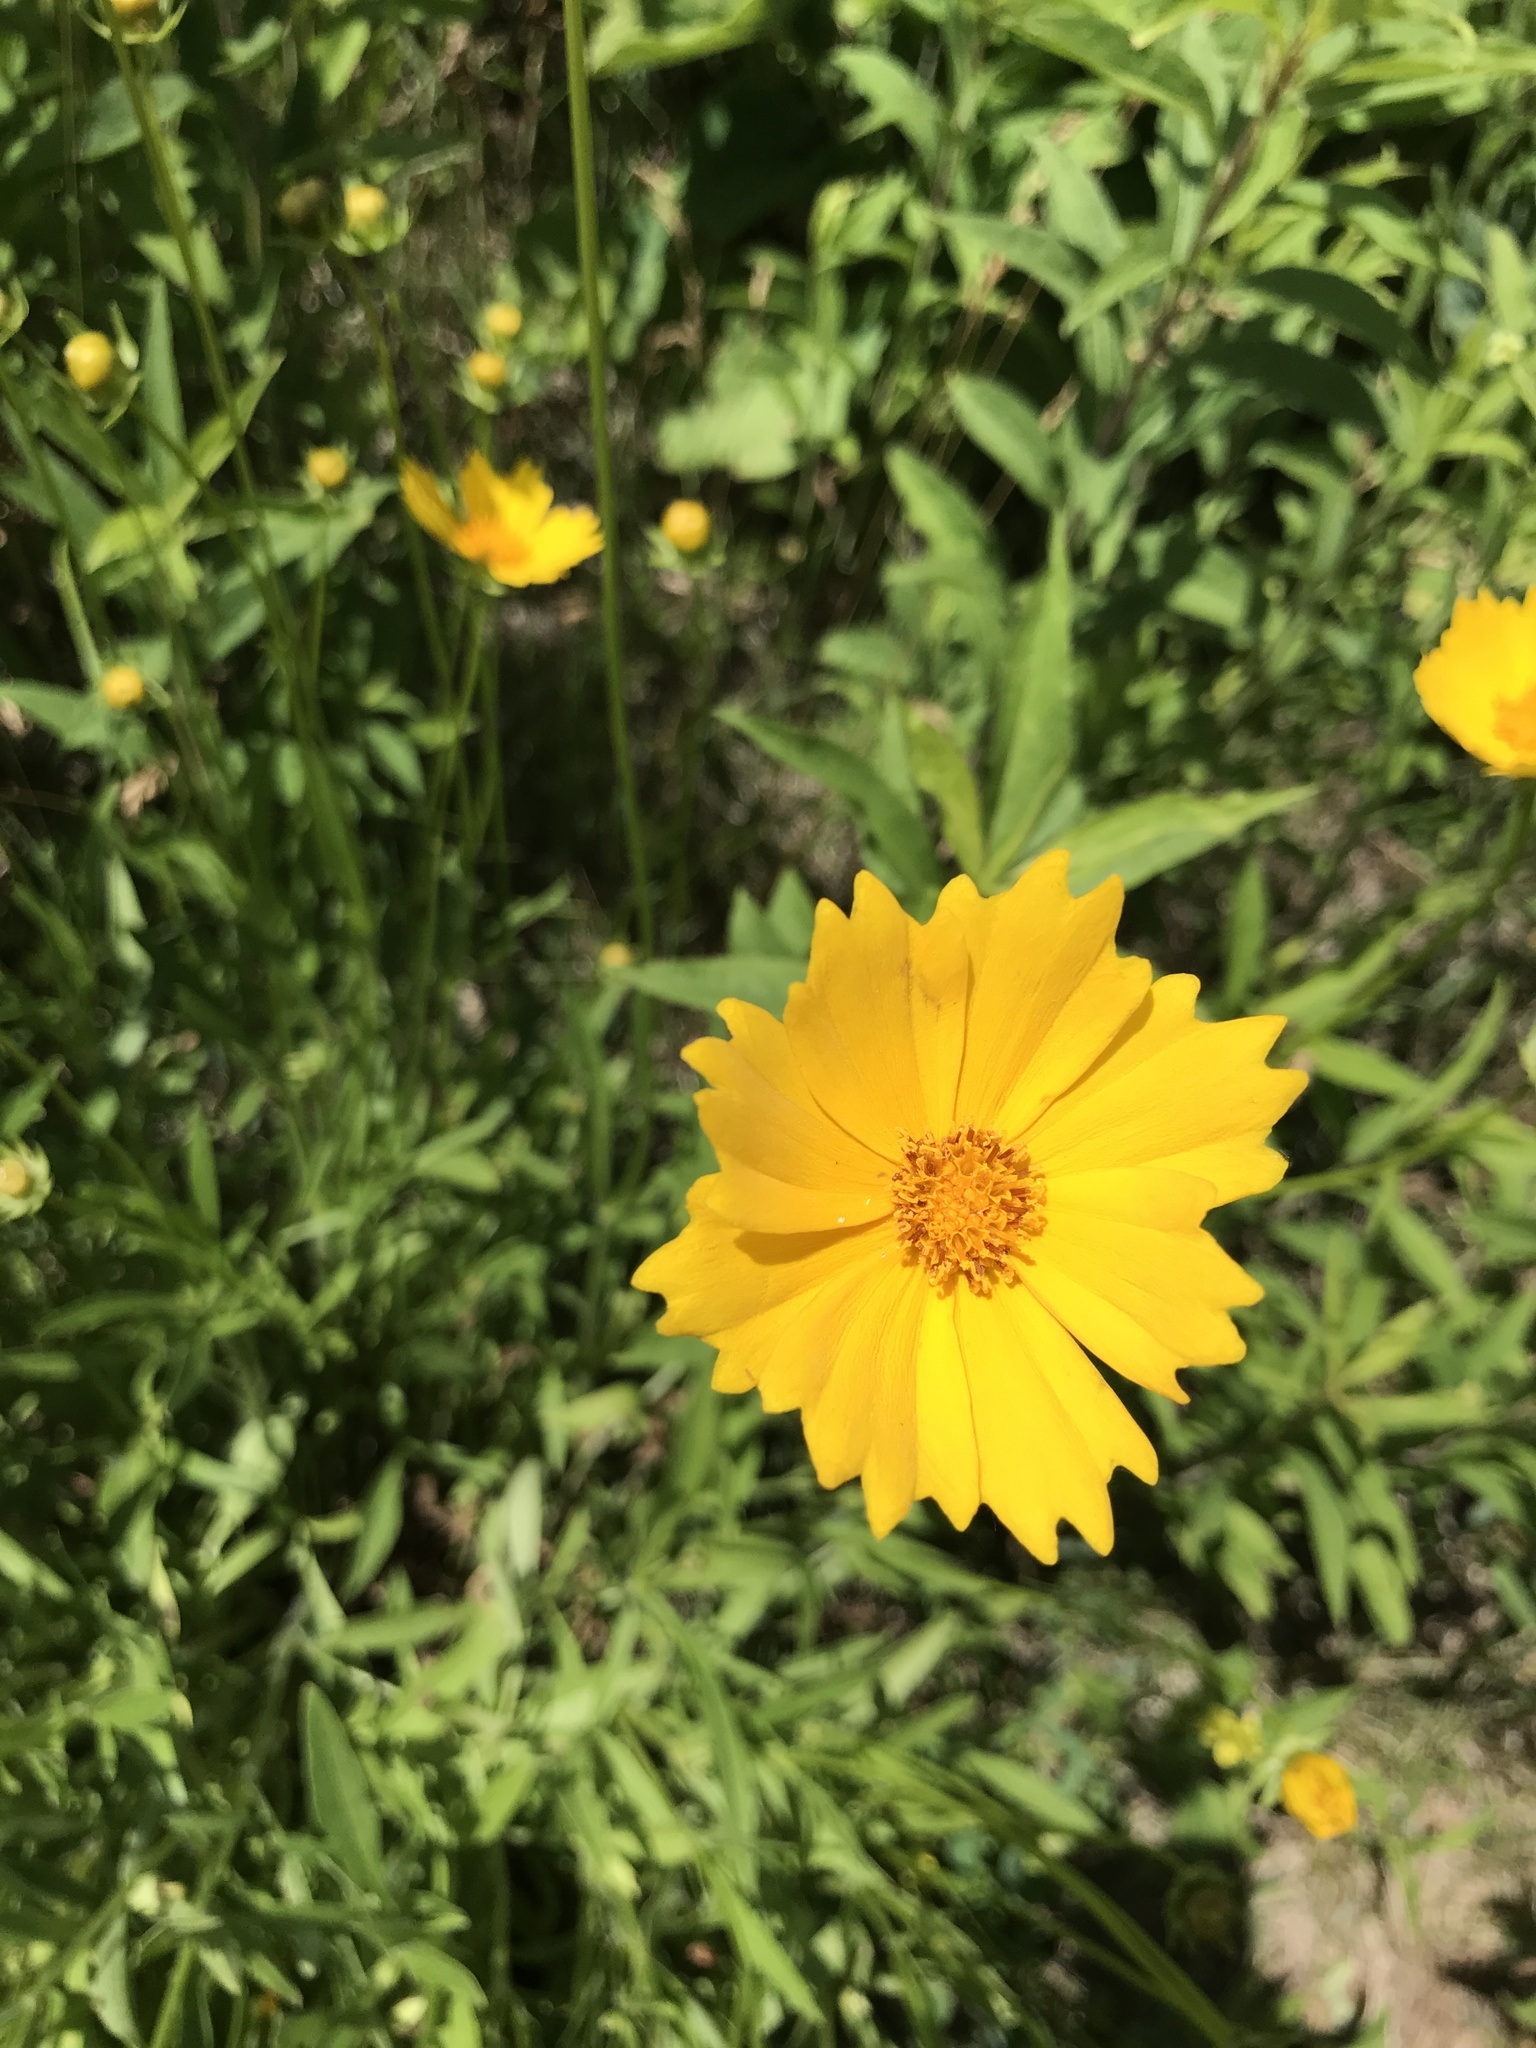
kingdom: Plantae
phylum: Tracheophyta
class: Magnoliopsida
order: Asterales
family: Asteraceae
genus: Coreopsis
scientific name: Coreopsis lanceolata
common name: Garden coreopsis
